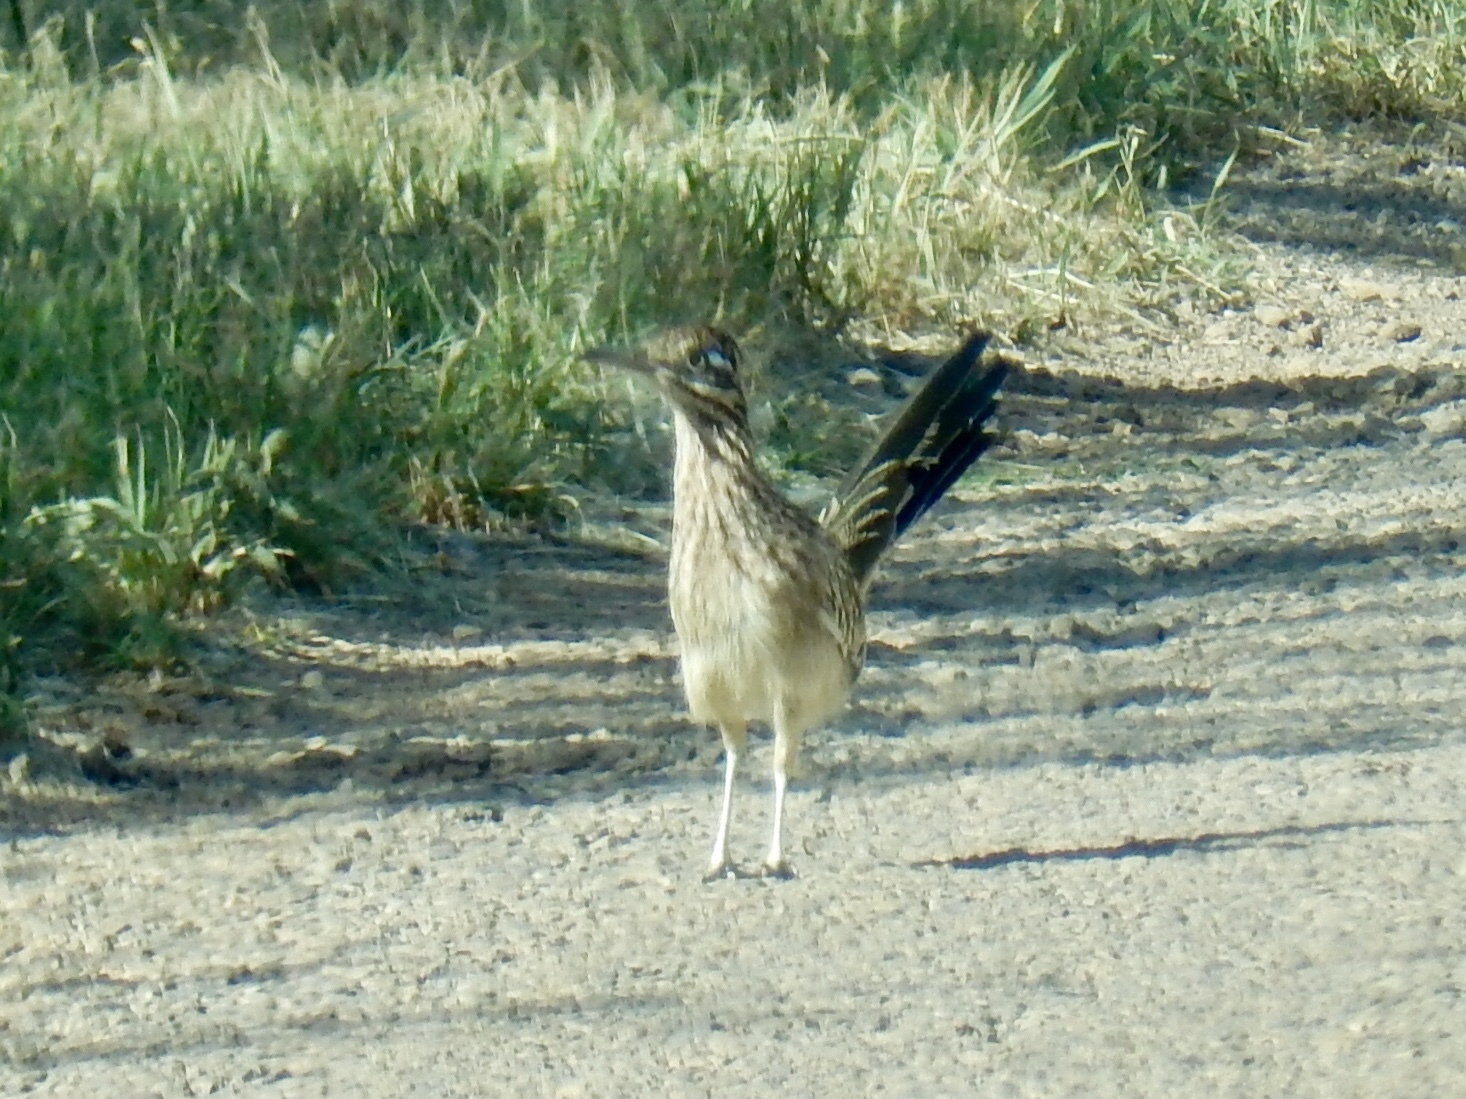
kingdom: Animalia
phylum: Chordata
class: Aves
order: Cuculiformes
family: Cuculidae
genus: Geococcyx
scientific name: Geococcyx californianus
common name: Greater roadrunner
